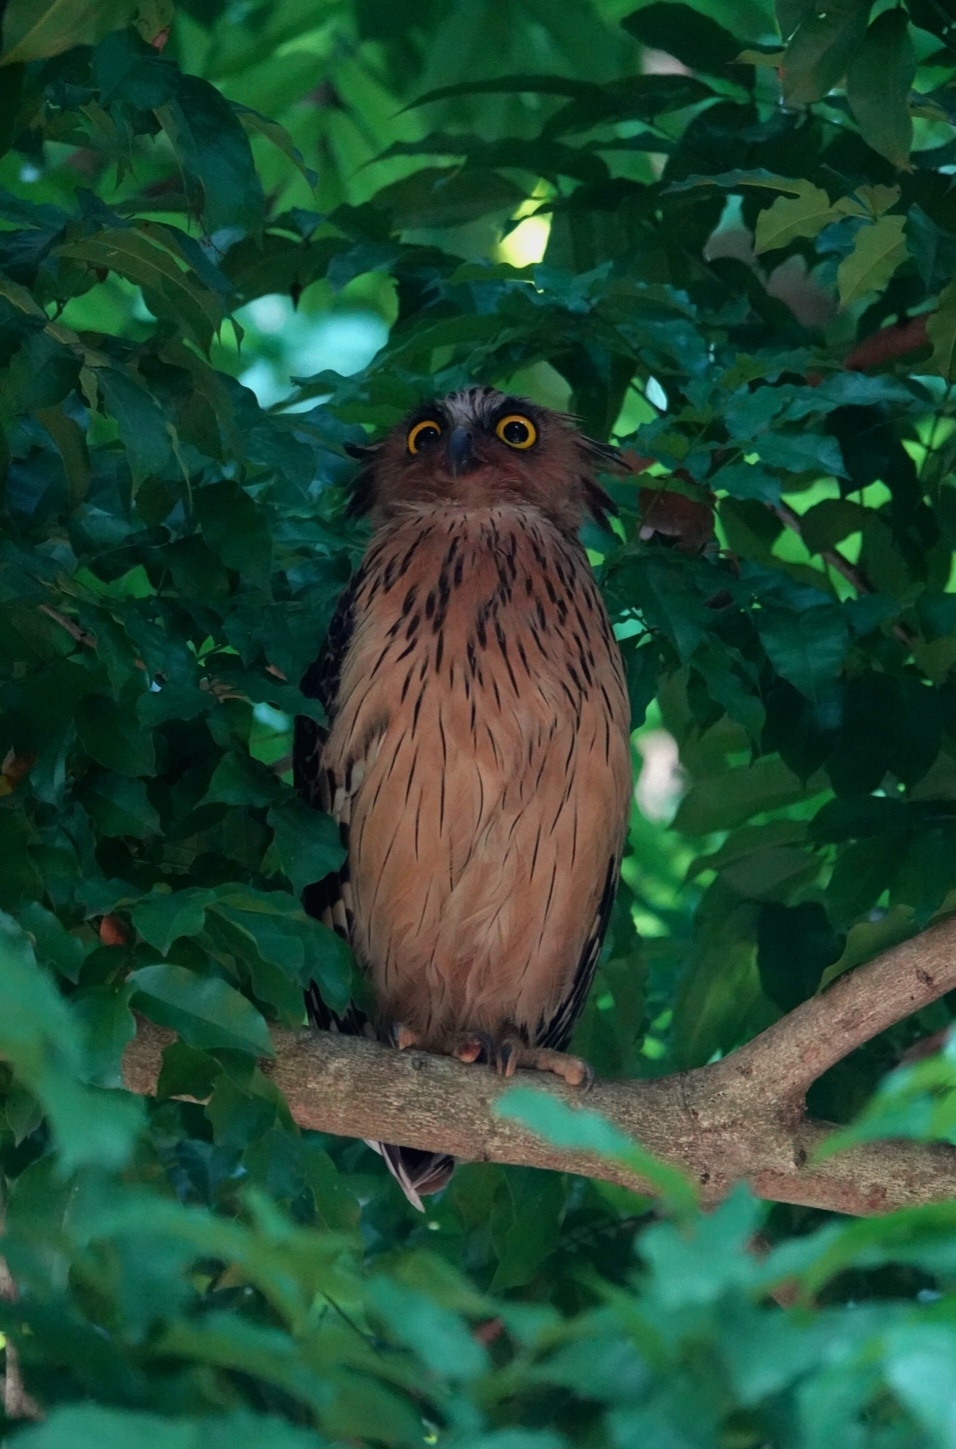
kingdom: Animalia
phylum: Chordata
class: Aves
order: Strigiformes
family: Strigidae
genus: Ketupa
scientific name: Ketupa ketupu
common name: Buffy fish-owl
